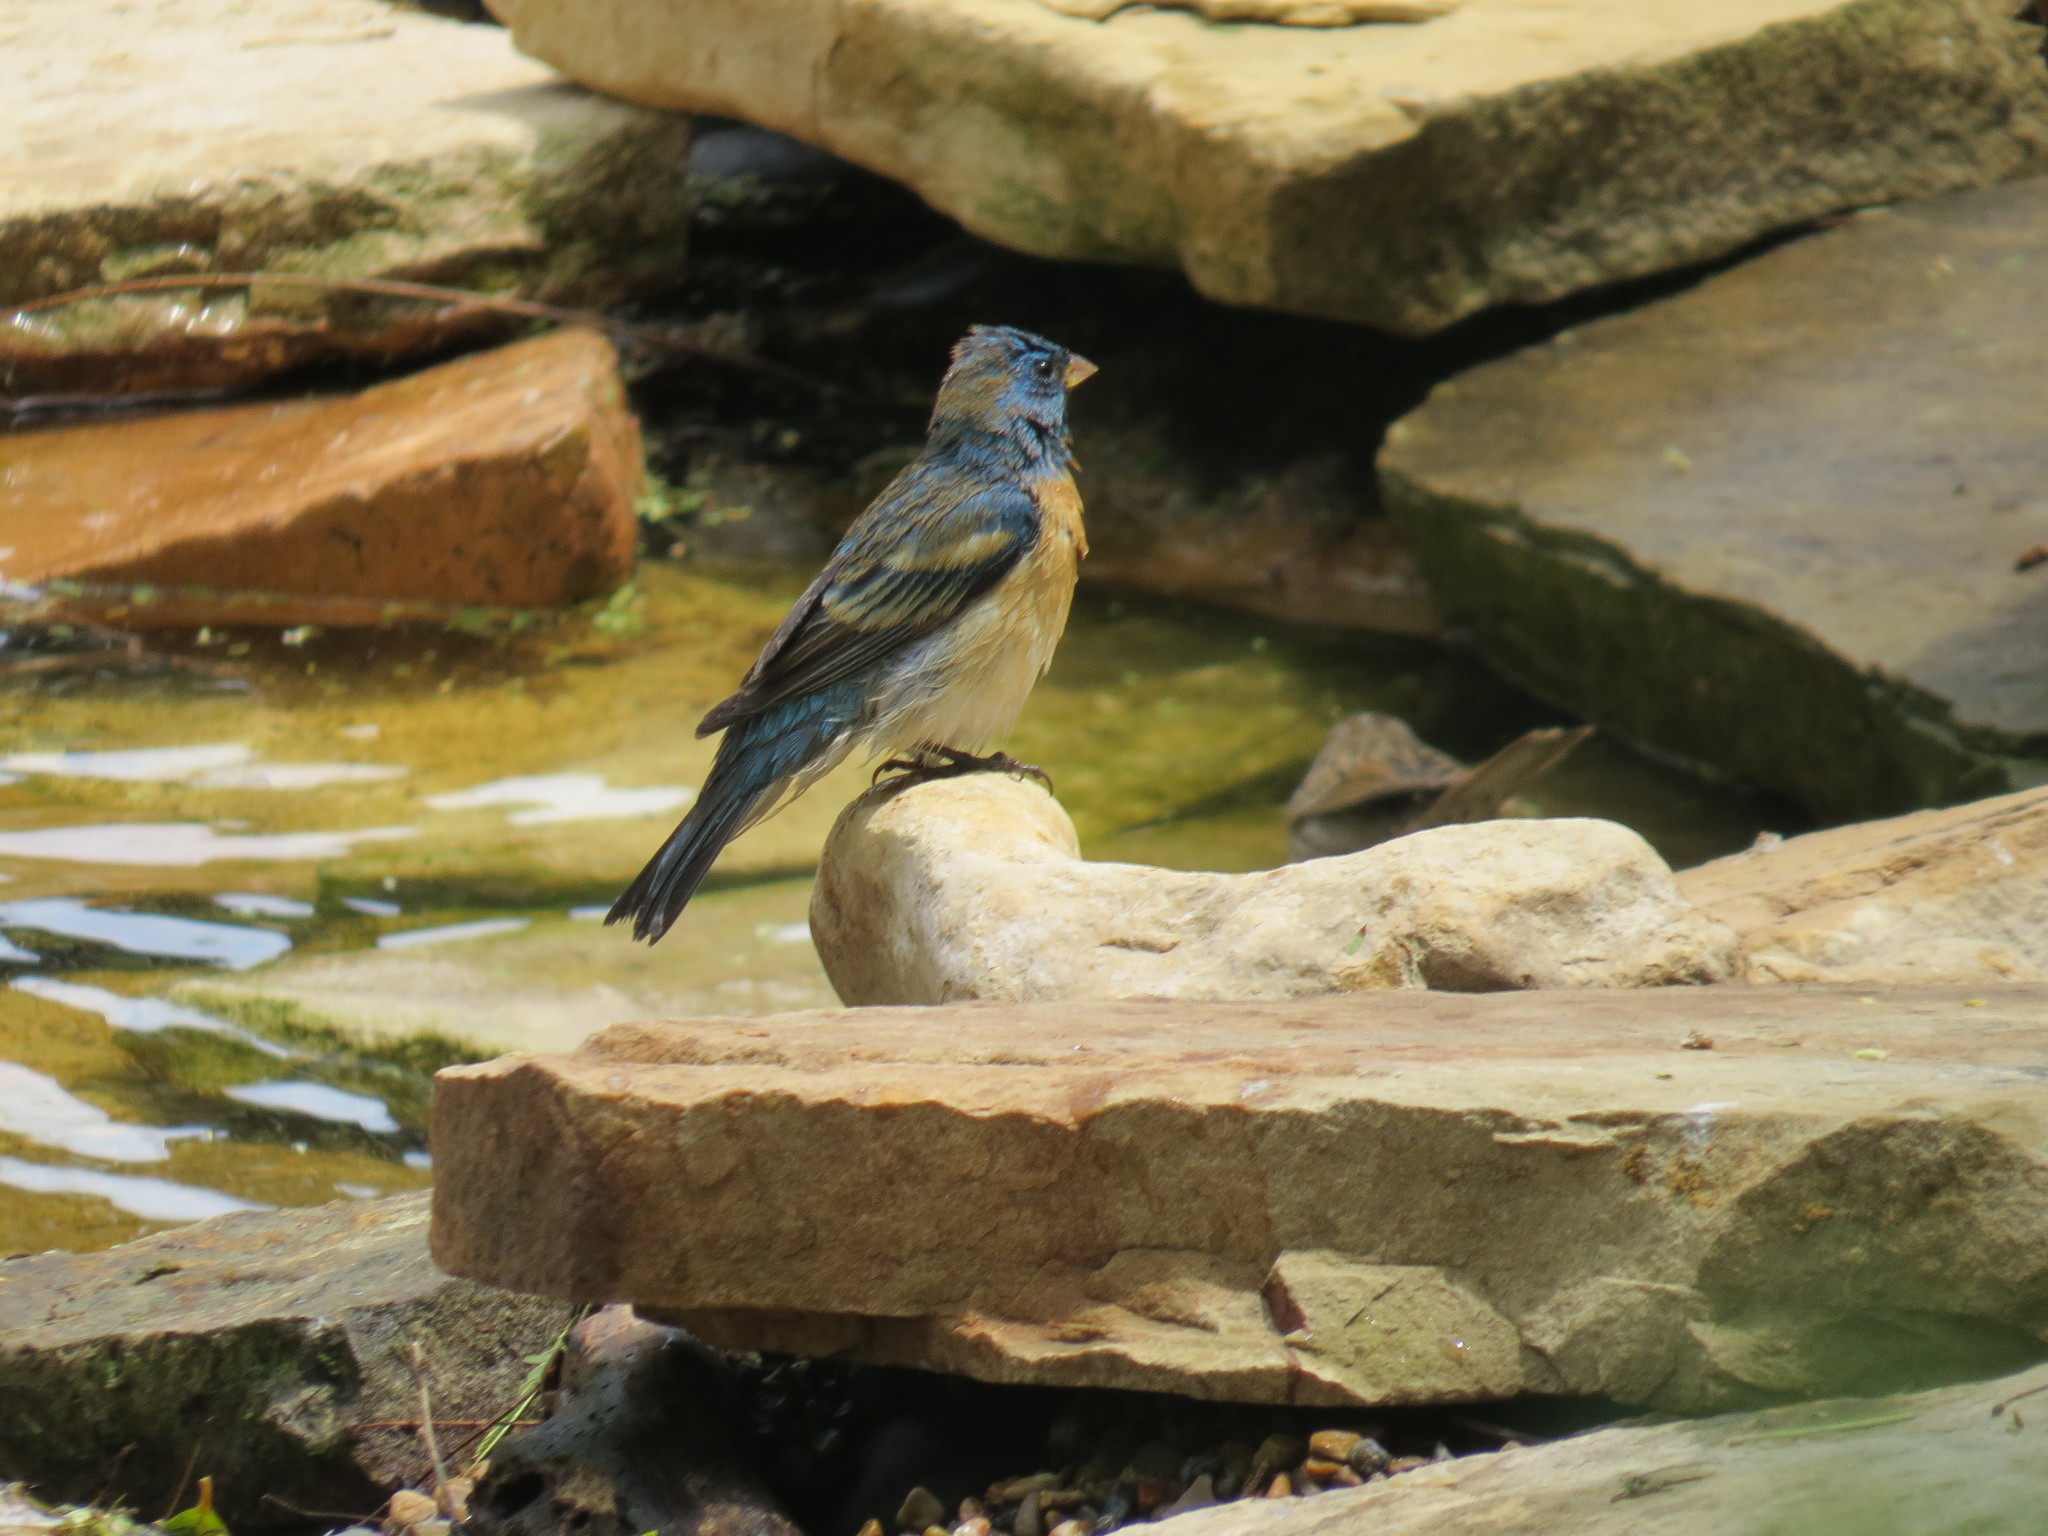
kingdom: Animalia
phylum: Chordata
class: Aves
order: Passeriformes
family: Cardinalidae
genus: Passerina
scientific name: Passerina amoena
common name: Lazuli bunting
